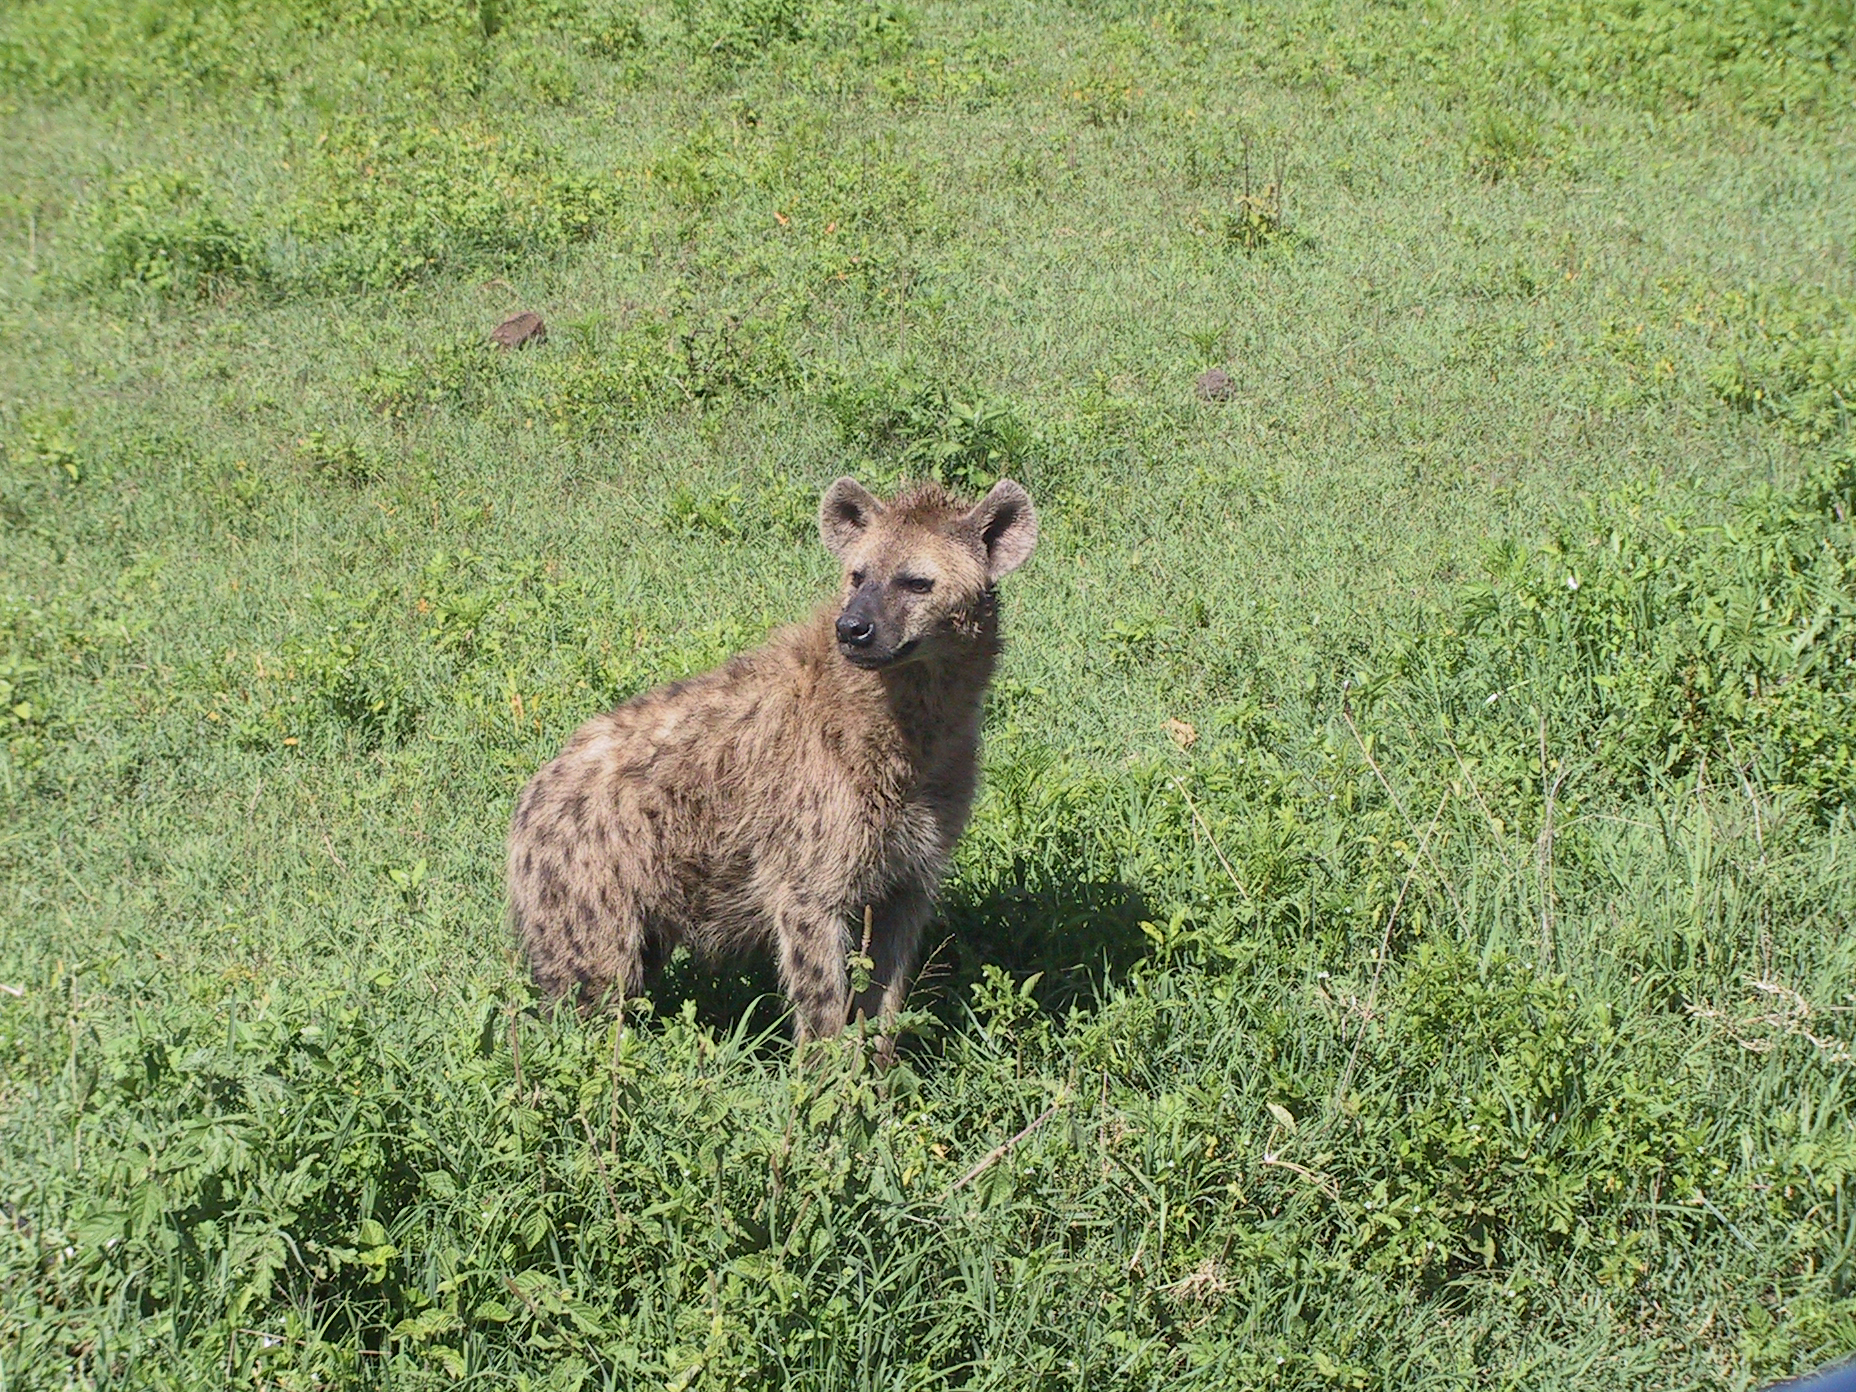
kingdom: Animalia
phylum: Chordata
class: Mammalia
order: Carnivora
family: Hyaenidae
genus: Crocuta
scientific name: Crocuta crocuta
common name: Spotted hyaena
